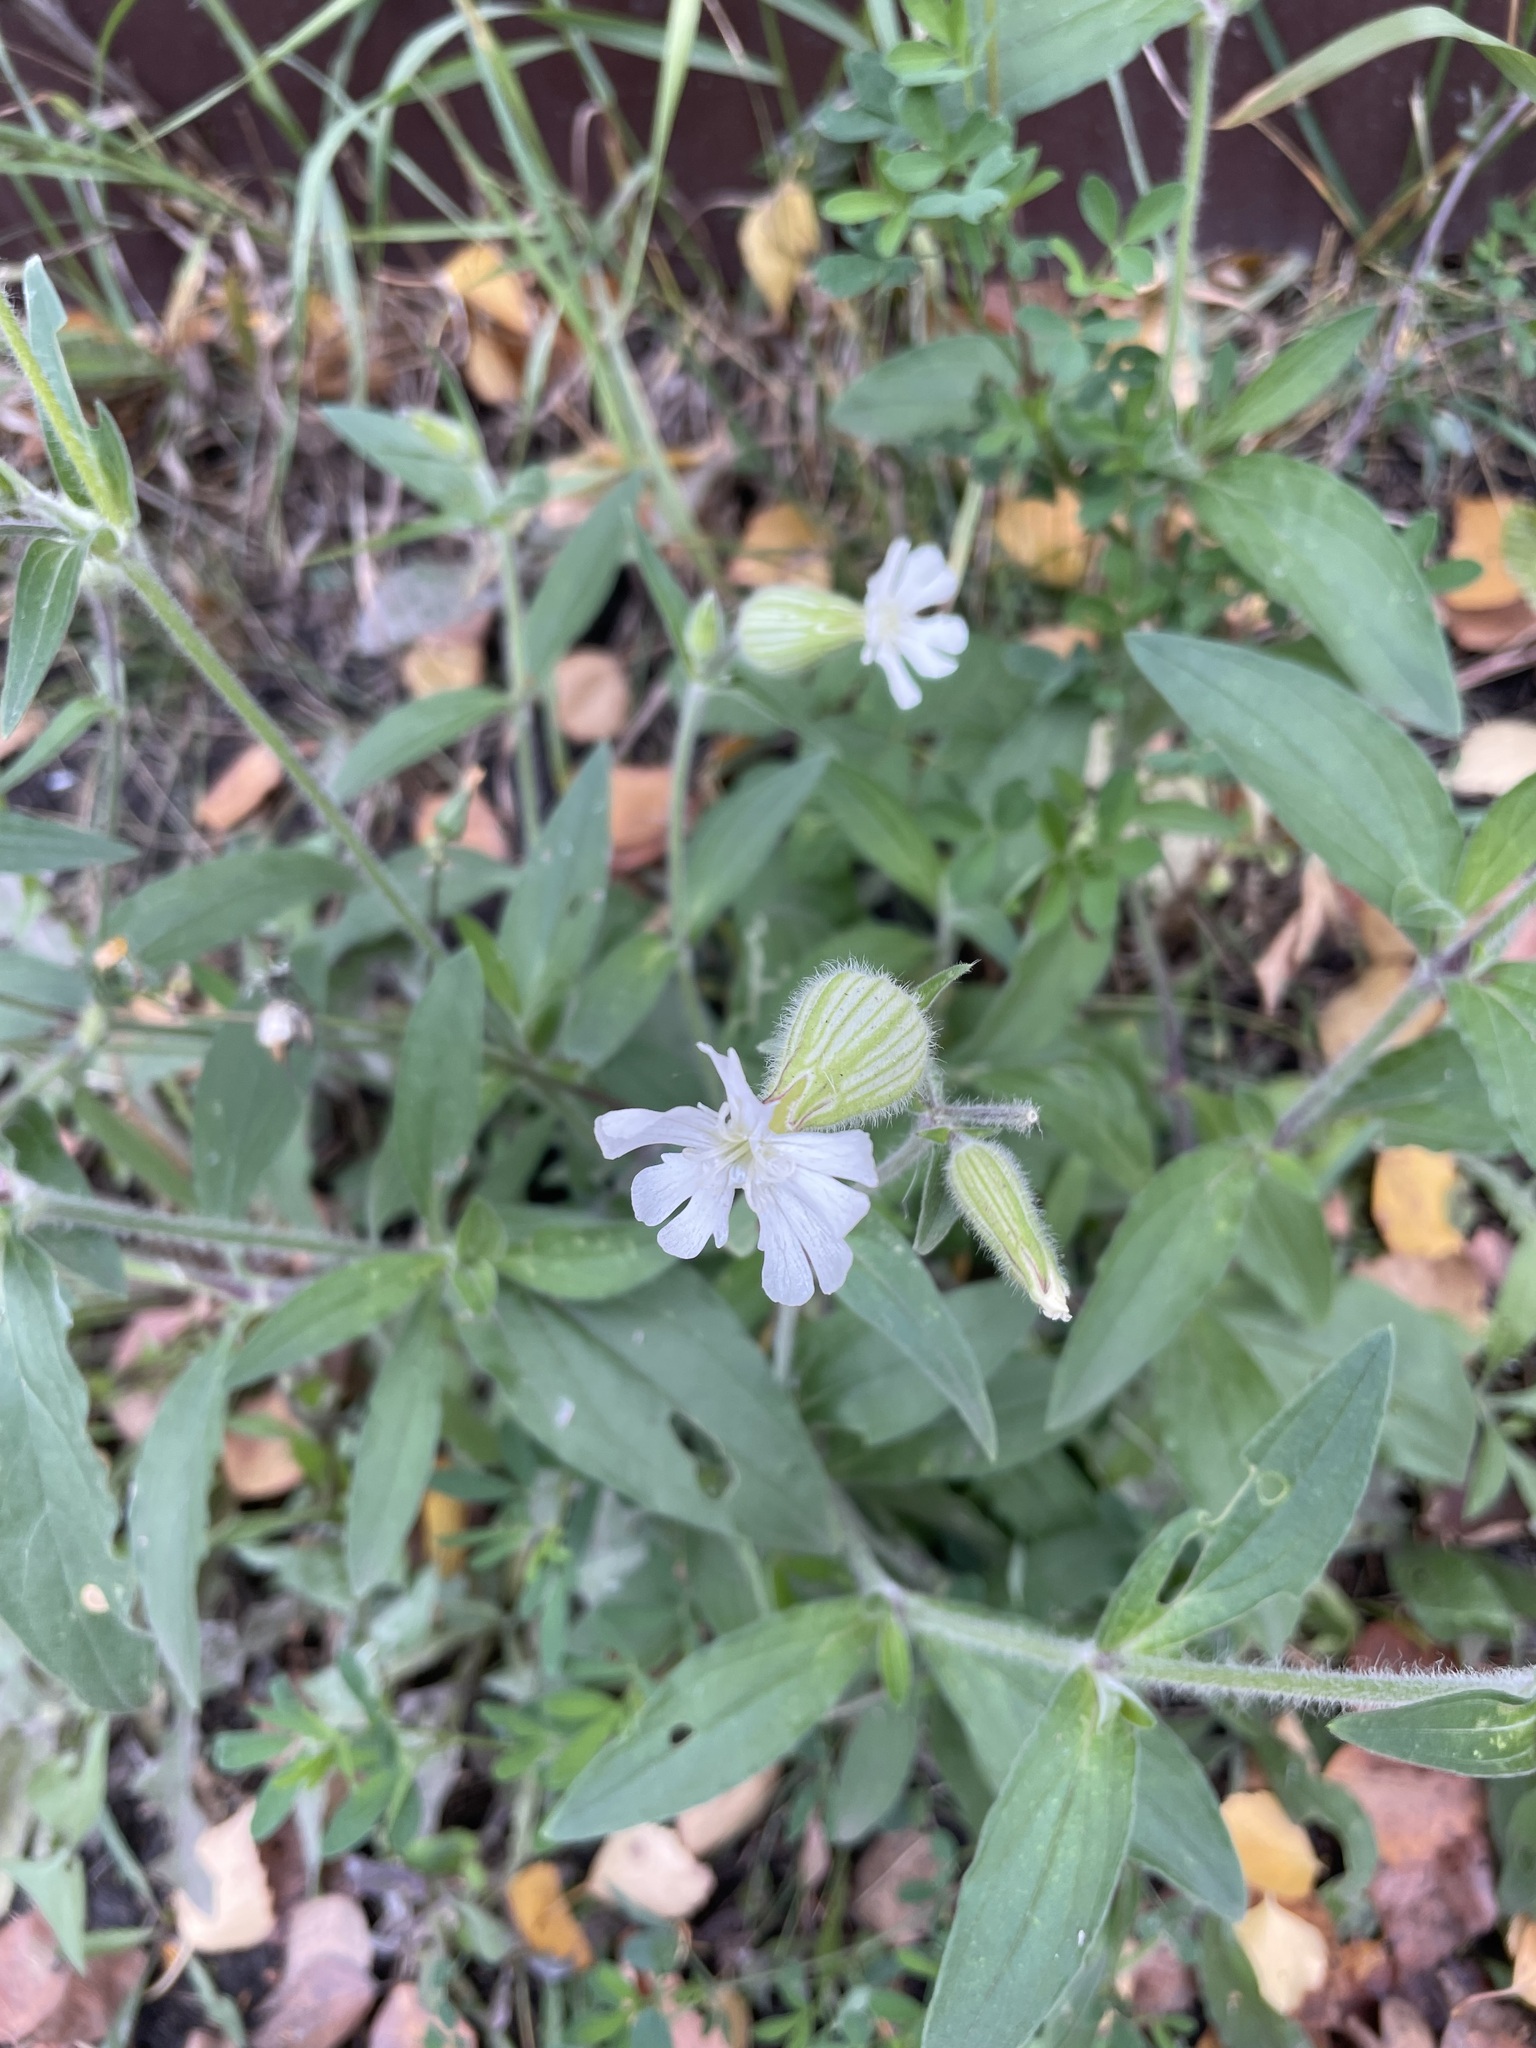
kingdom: Plantae
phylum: Tracheophyta
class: Magnoliopsida
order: Caryophyllales
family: Caryophyllaceae
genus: Silene
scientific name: Silene latifolia
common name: White campion
